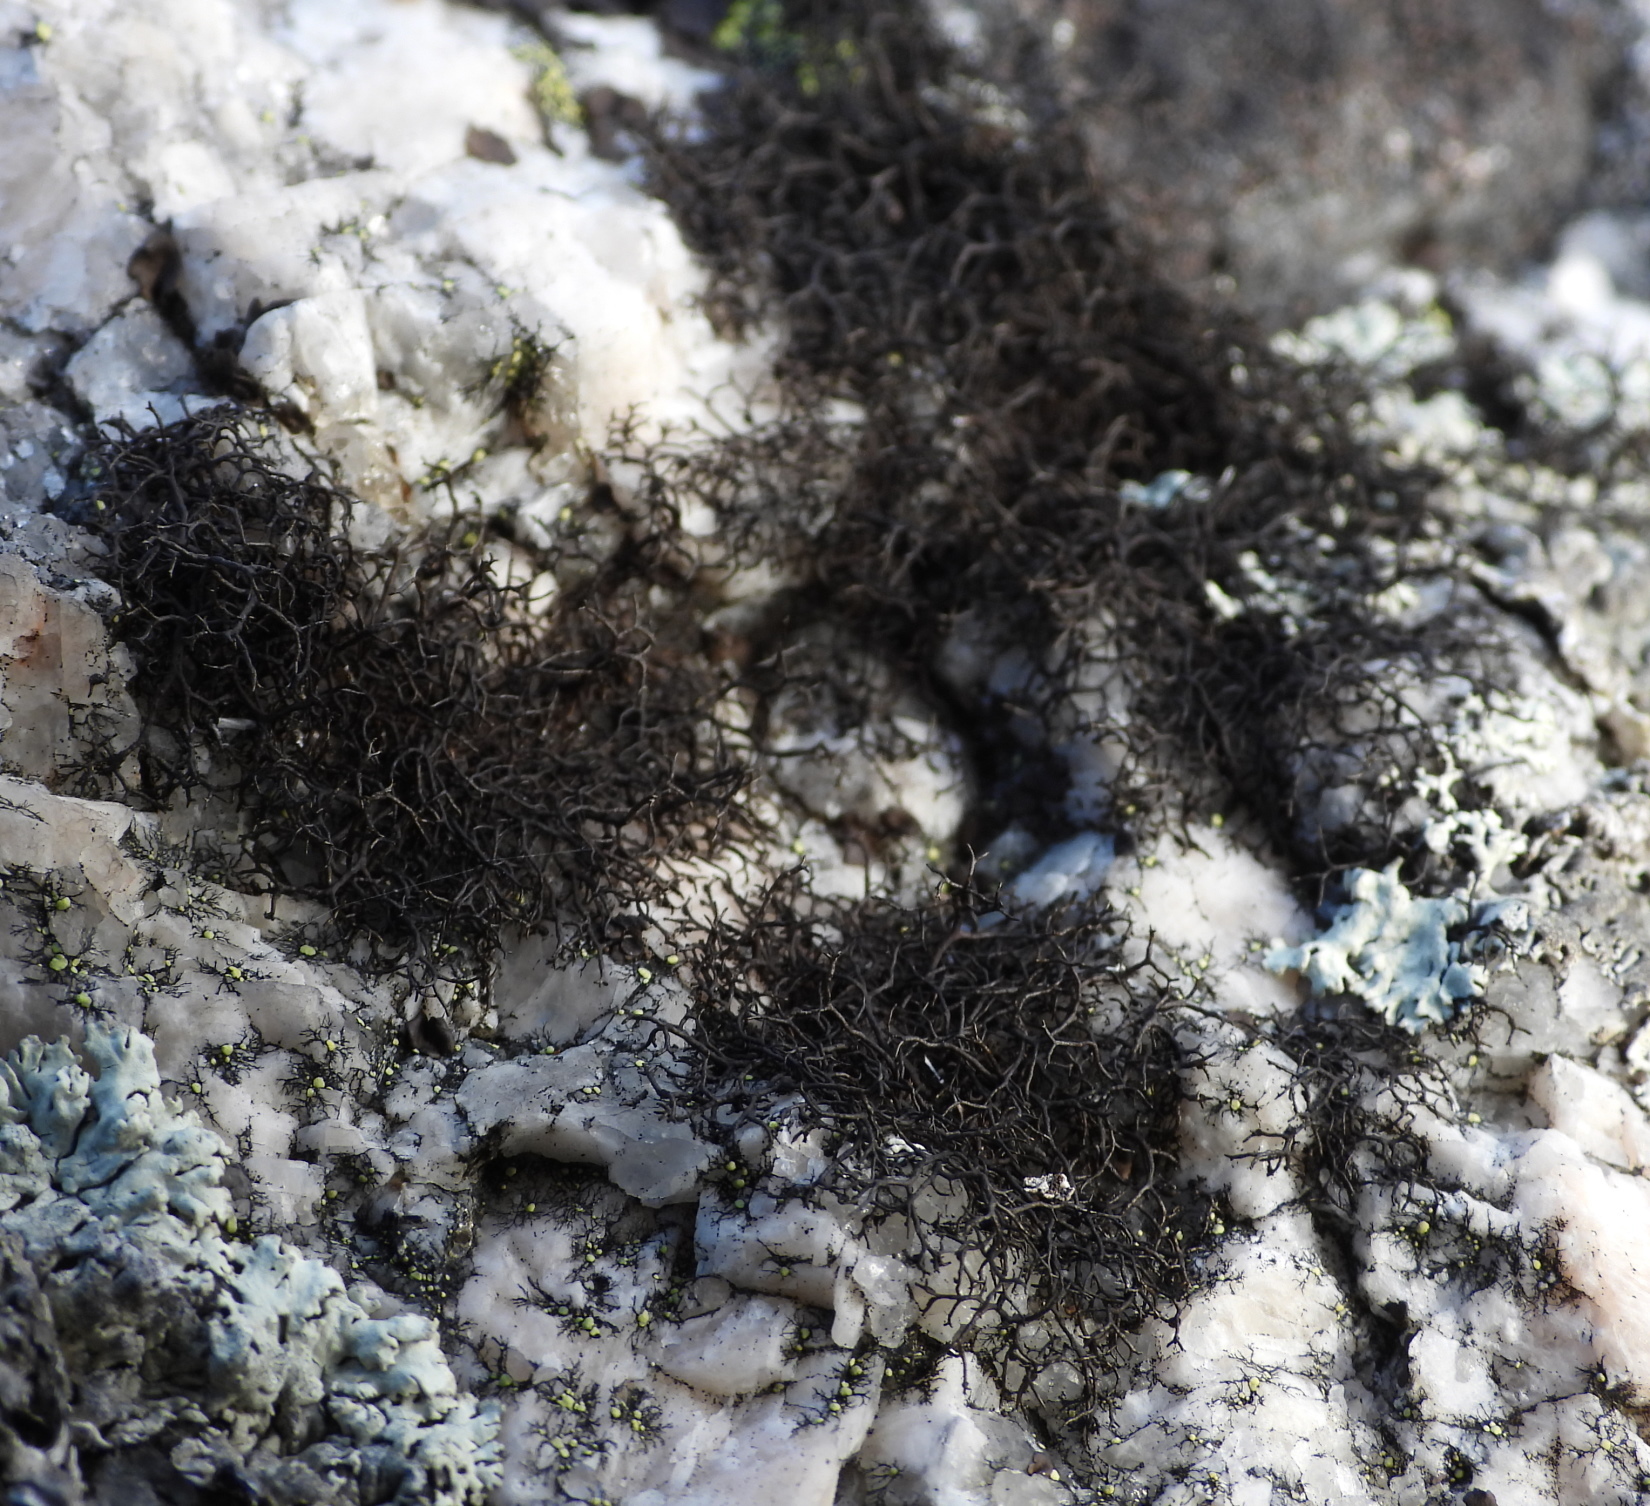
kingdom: Fungi
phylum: Ascomycota
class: Lecanoromycetes
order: Lecanorales
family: Parmeliaceae
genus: Pseudephebe
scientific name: Pseudephebe pubescens
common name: Fine rockwool lichen
